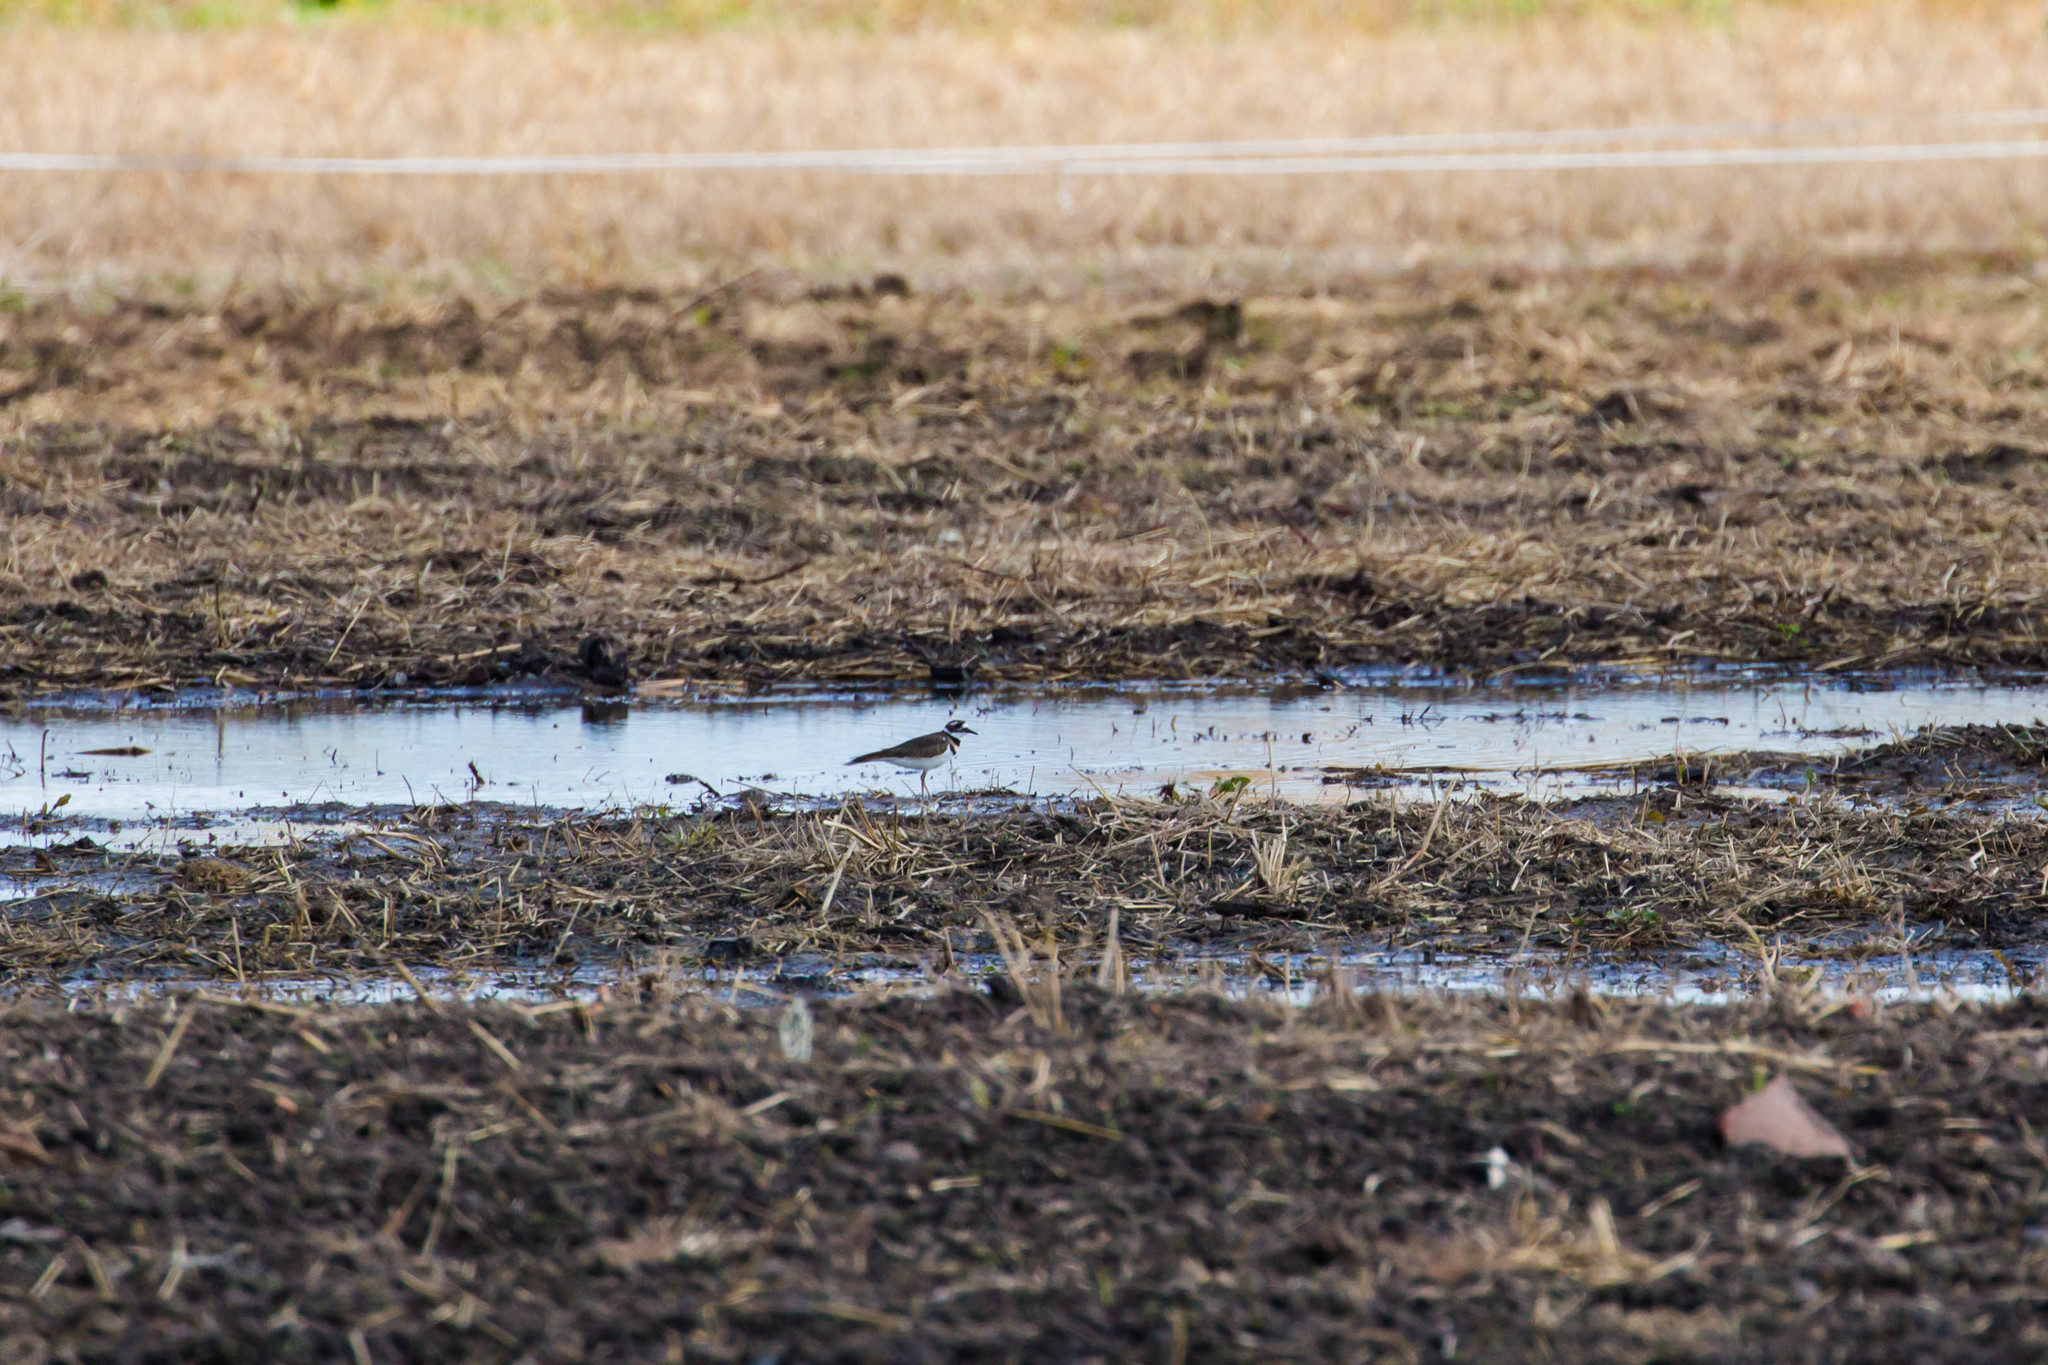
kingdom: Animalia
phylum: Chordata
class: Aves
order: Charadriiformes
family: Charadriidae
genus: Charadrius
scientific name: Charadrius vociferus
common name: Killdeer
